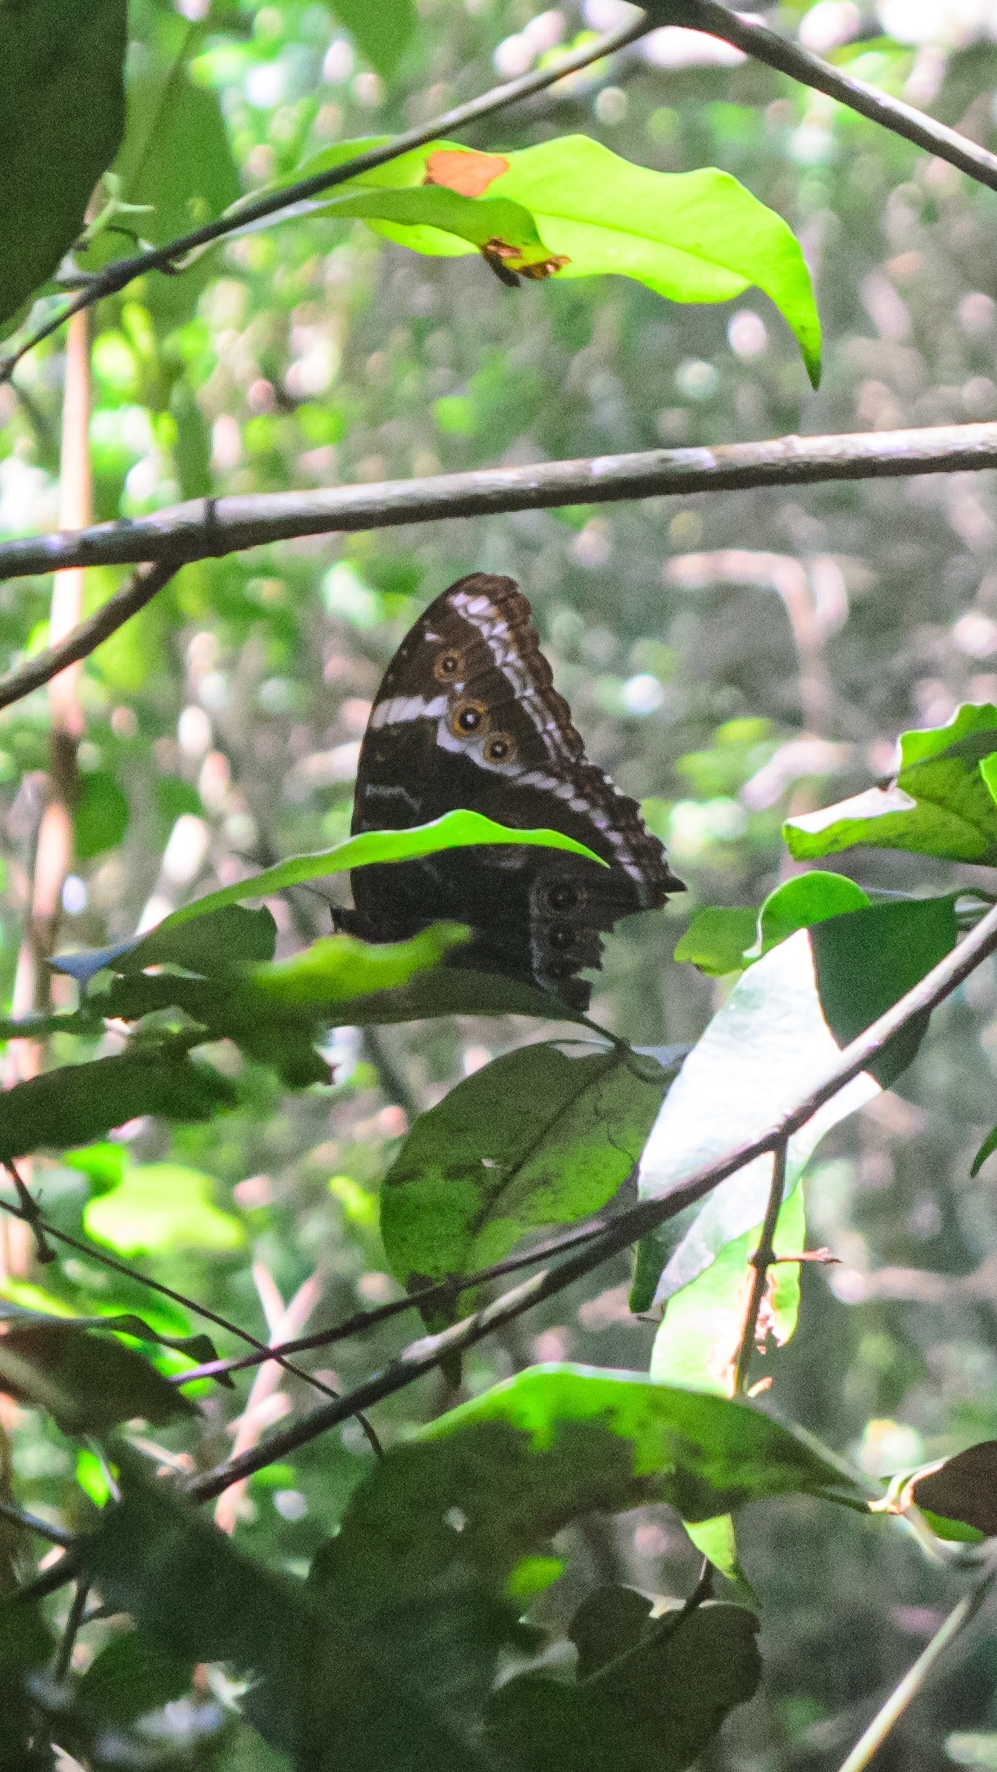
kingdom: Animalia
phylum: Arthropoda
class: Insecta
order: Lepidoptera
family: Nymphalidae
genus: Morpho
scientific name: Morpho helenor
